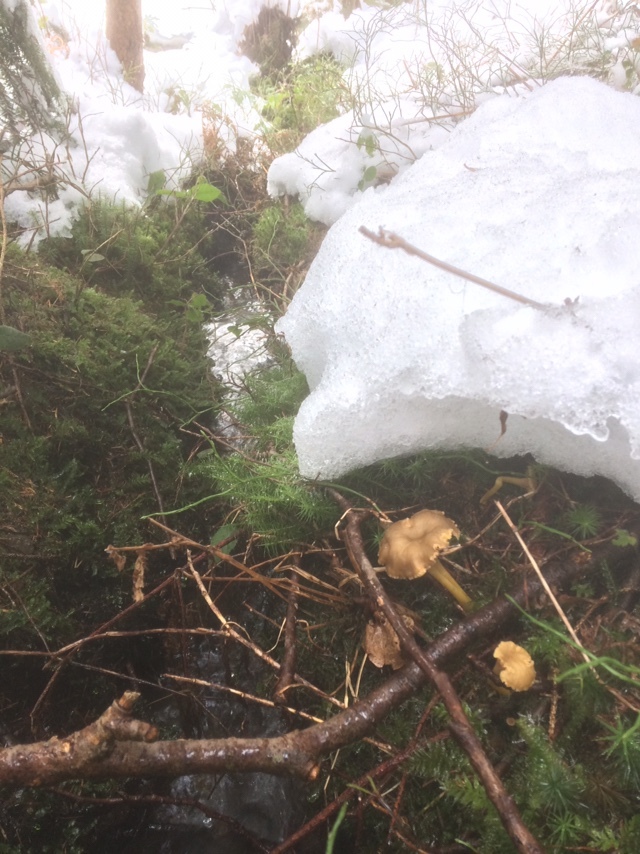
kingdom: Fungi
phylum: Basidiomycota
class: Agaricomycetes
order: Cantharellales
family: Hydnaceae
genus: Craterellus
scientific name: Craterellus tubaeformis
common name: Yellowfoot
